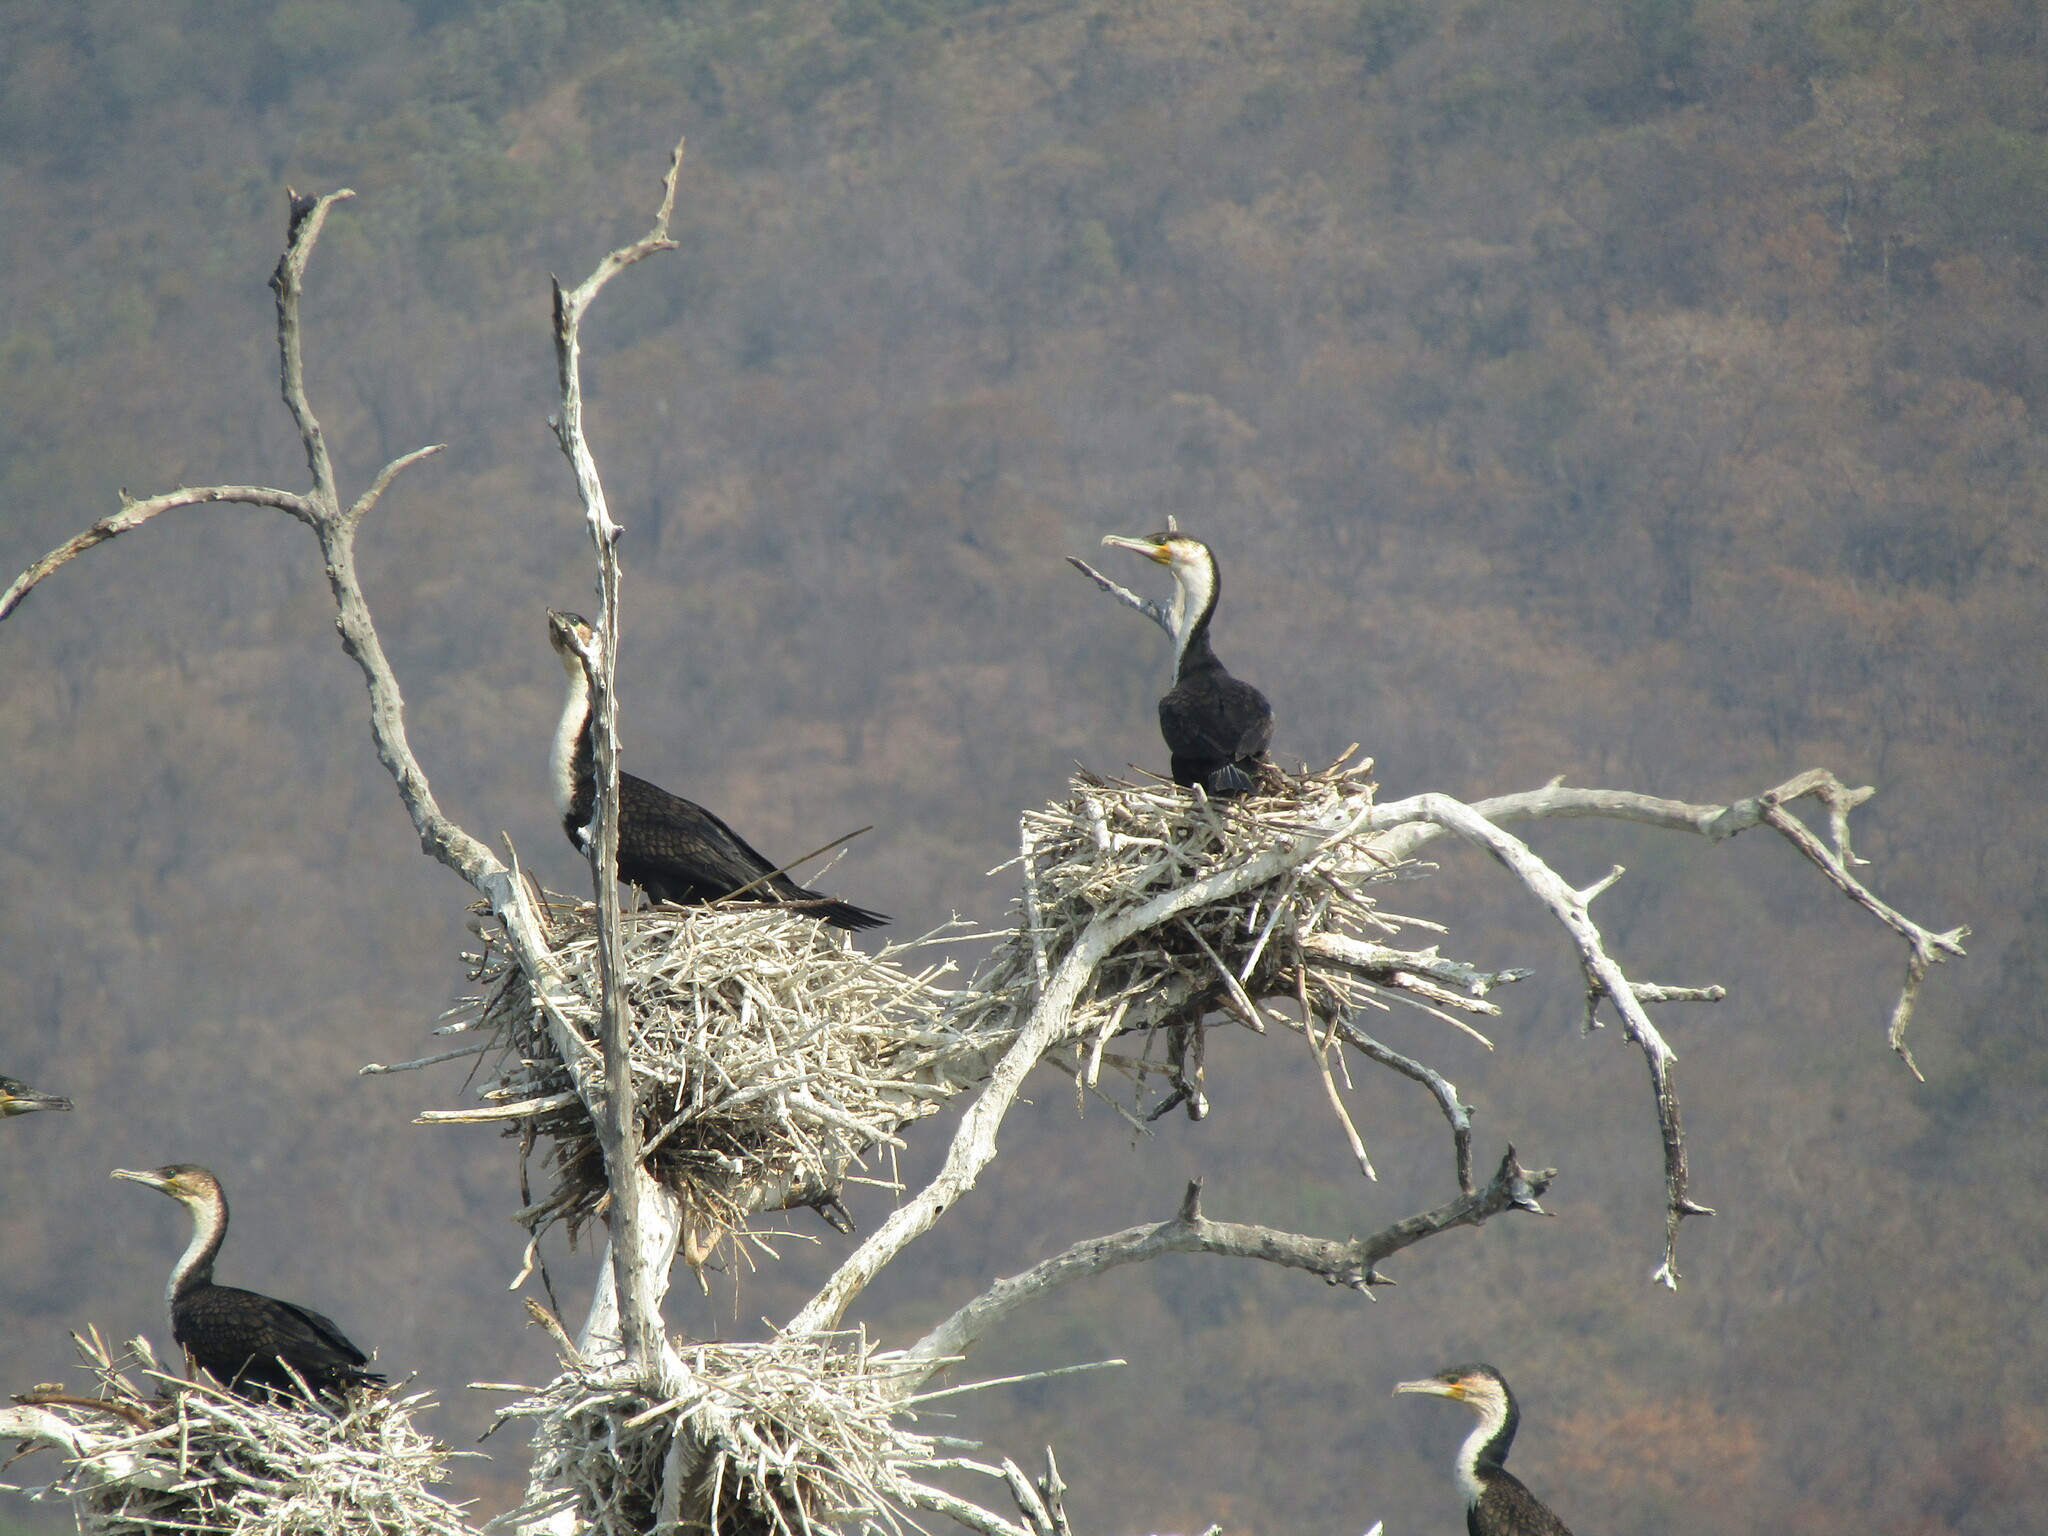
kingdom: Animalia
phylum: Chordata
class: Aves
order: Suliformes
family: Phalacrocoracidae
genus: Phalacrocorax
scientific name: Phalacrocorax carbo
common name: Great cormorant
